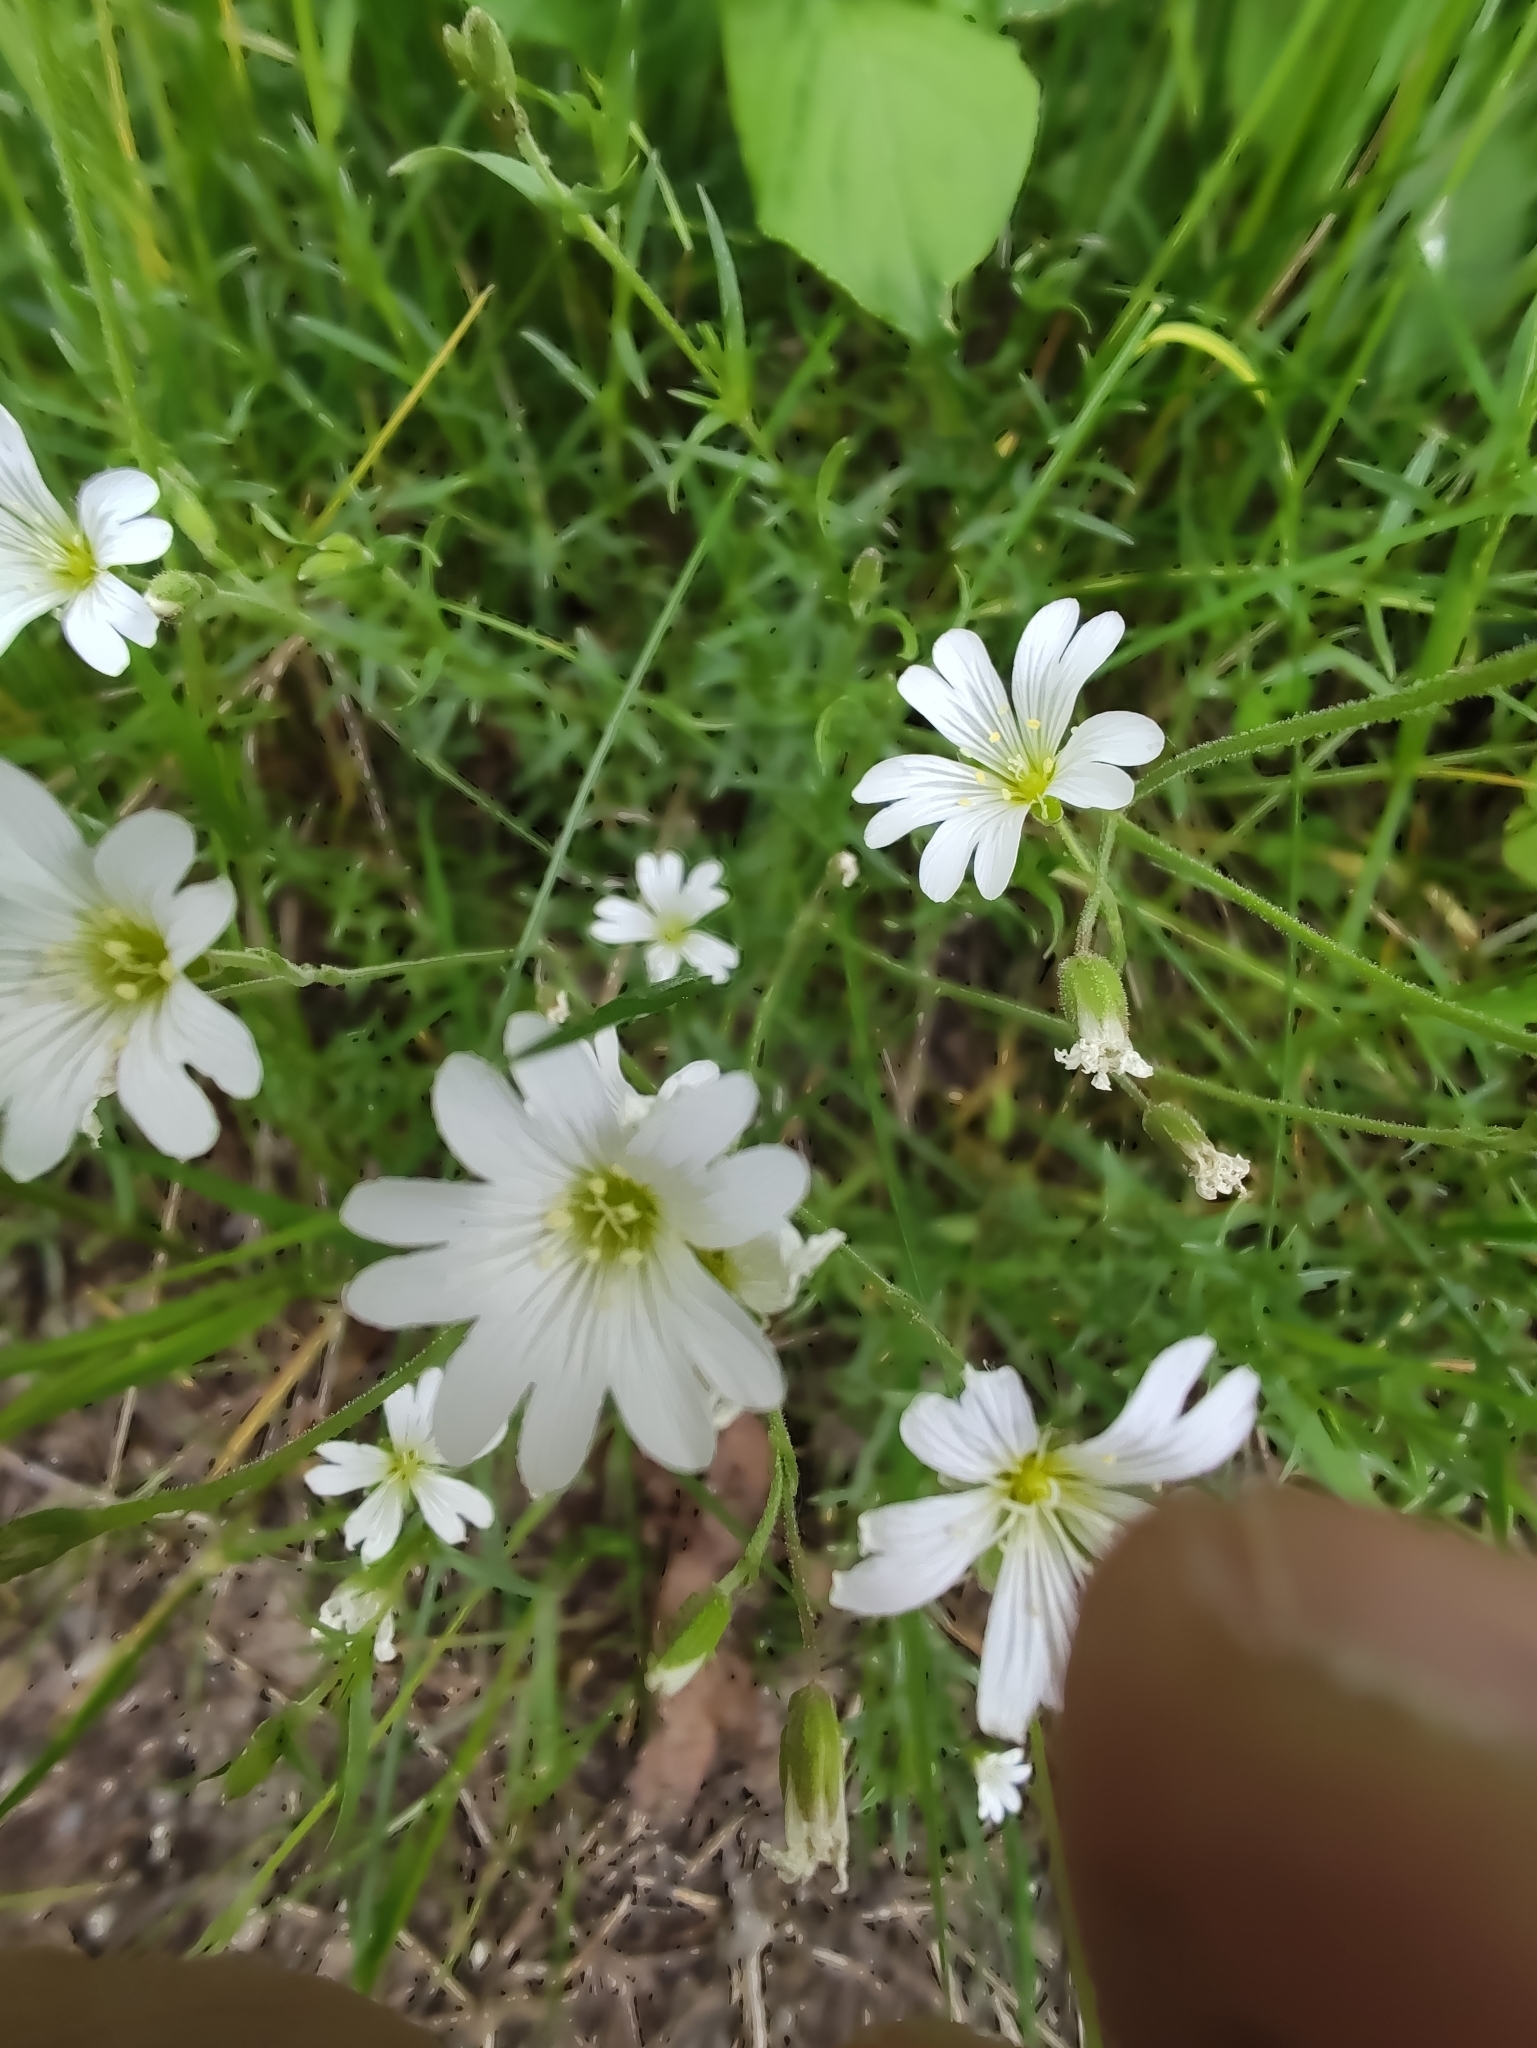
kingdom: Plantae
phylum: Tracheophyta
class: Magnoliopsida
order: Caryophyllales
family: Caryophyllaceae
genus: Cerastium
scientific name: Cerastium arvense
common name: Field mouse-ear
